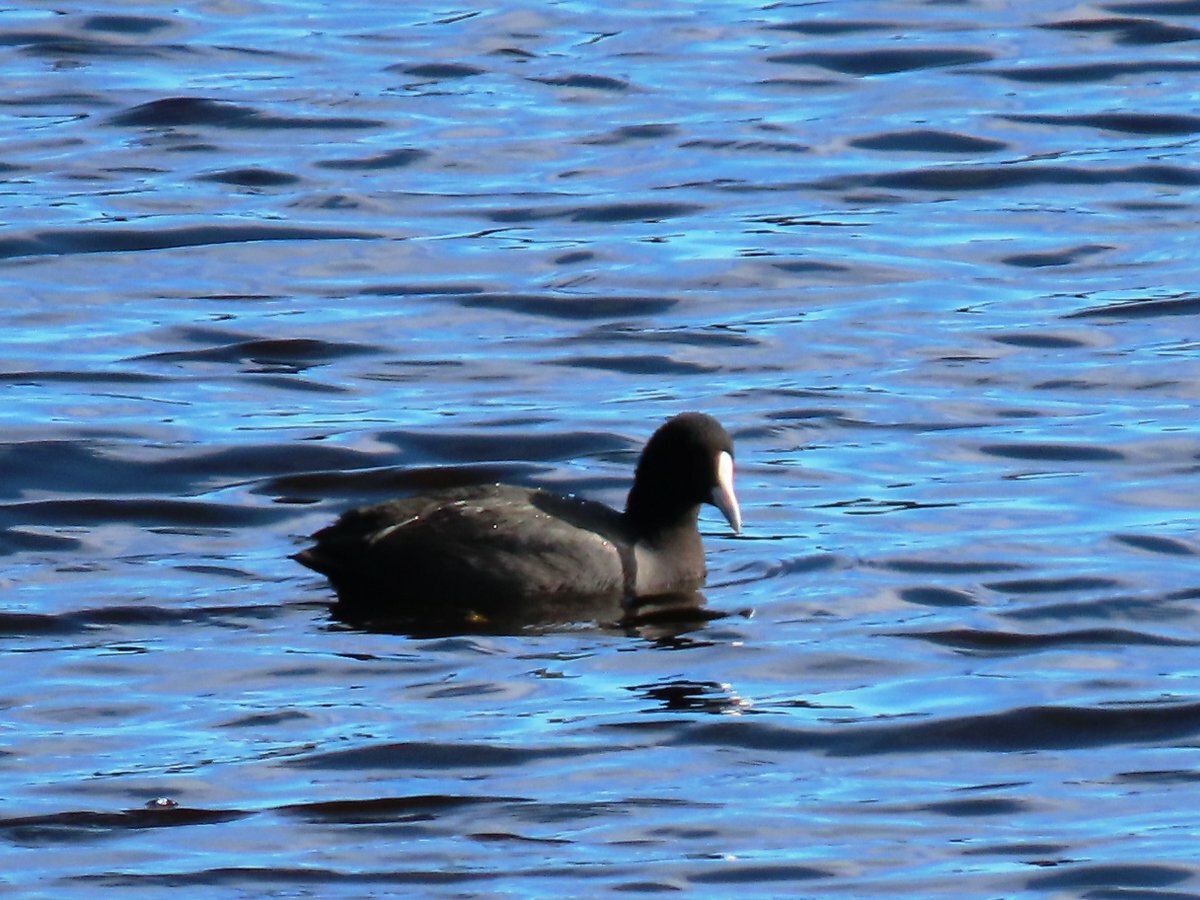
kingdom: Animalia
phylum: Chordata
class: Aves
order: Gruiformes
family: Rallidae
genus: Fulica
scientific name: Fulica atra
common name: Eurasian coot
